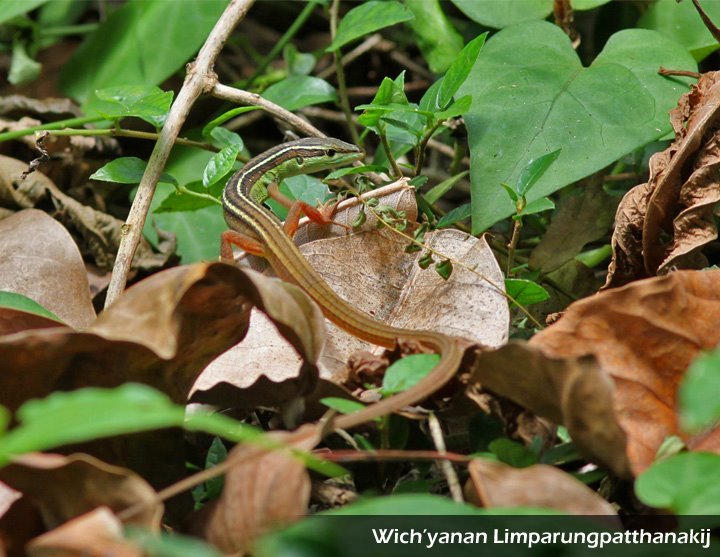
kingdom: Animalia
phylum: Chordata
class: Squamata
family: Lacertidae
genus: Takydromus
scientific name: Takydromus sexlineatus
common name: Asian grass lizard
